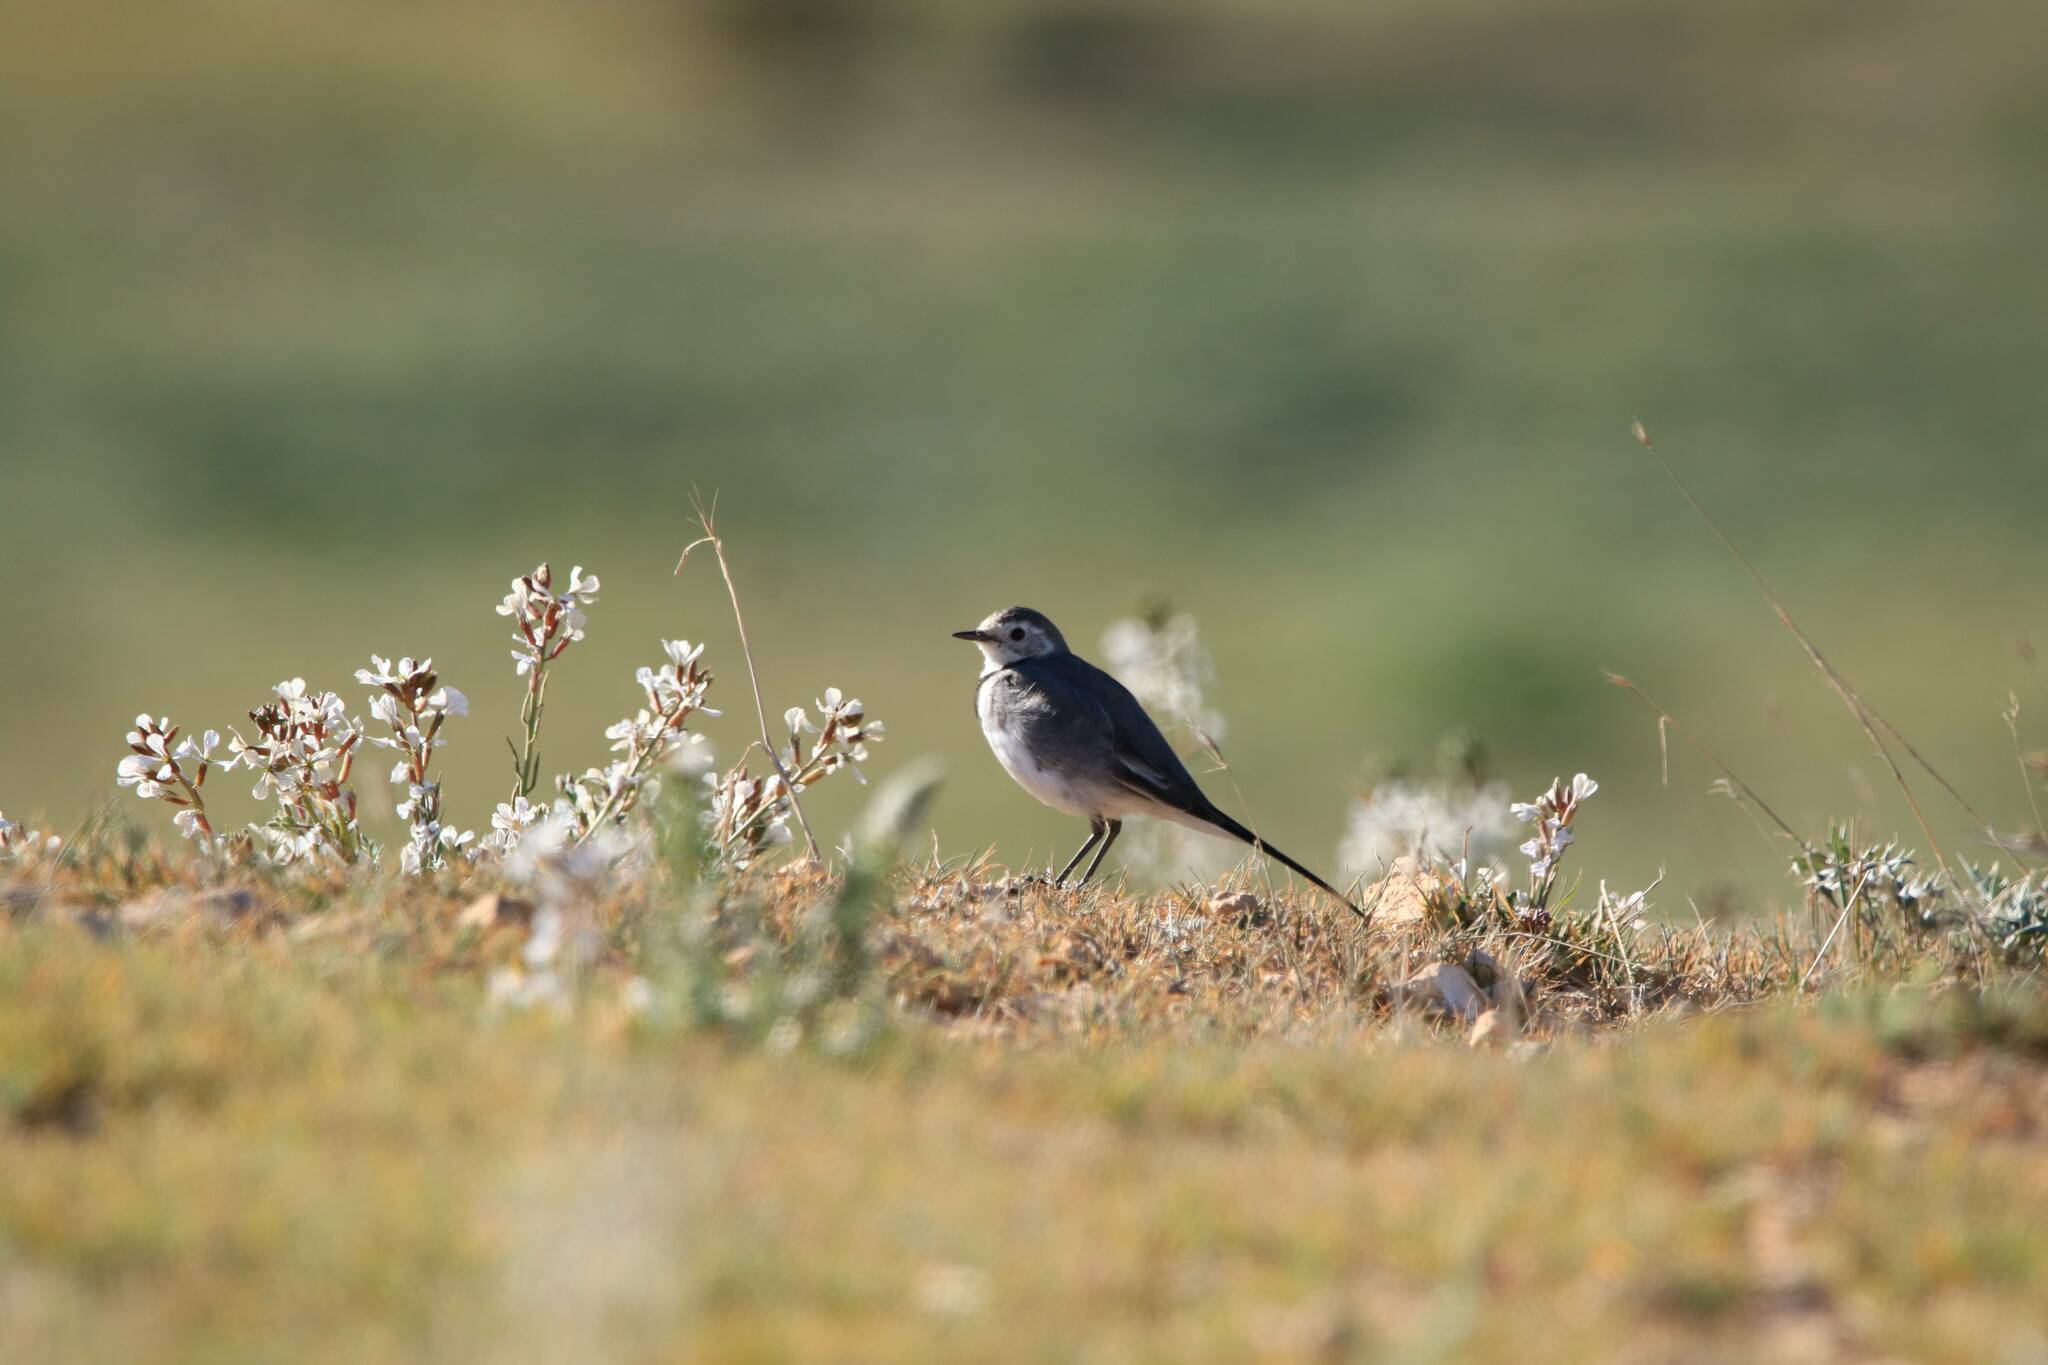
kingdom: Animalia
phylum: Chordata
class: Aves
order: Passeriformes
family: Motacillidae
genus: Motacilla
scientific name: Motacilla alba
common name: White wagtail
